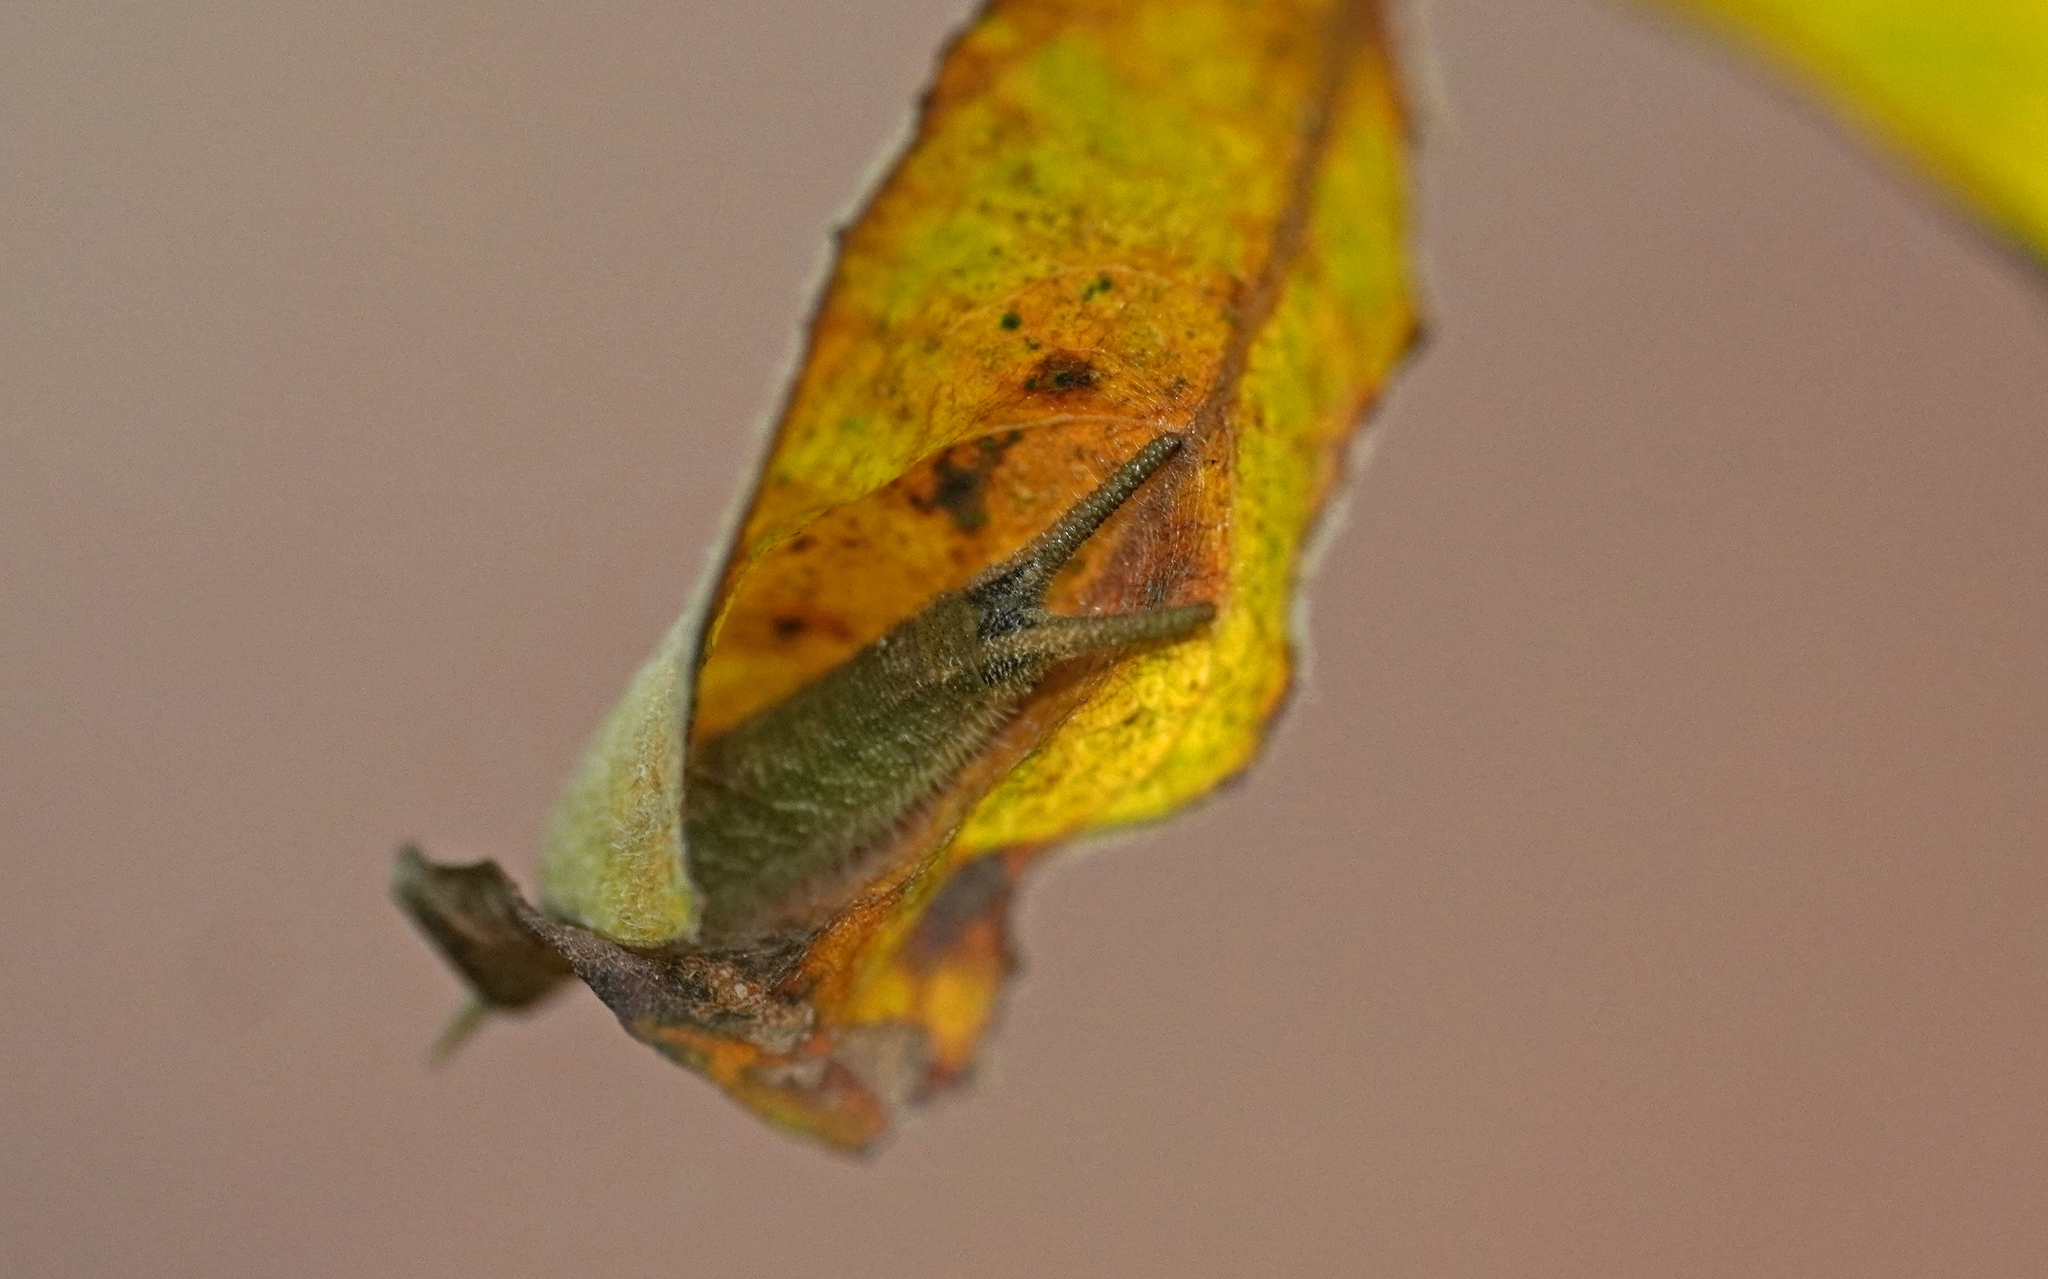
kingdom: Animalia
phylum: Arthropoda
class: Insecta
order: Lepidoptera
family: Nymphalidae
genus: Apatura
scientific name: Apatura iris
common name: Purple emperor
